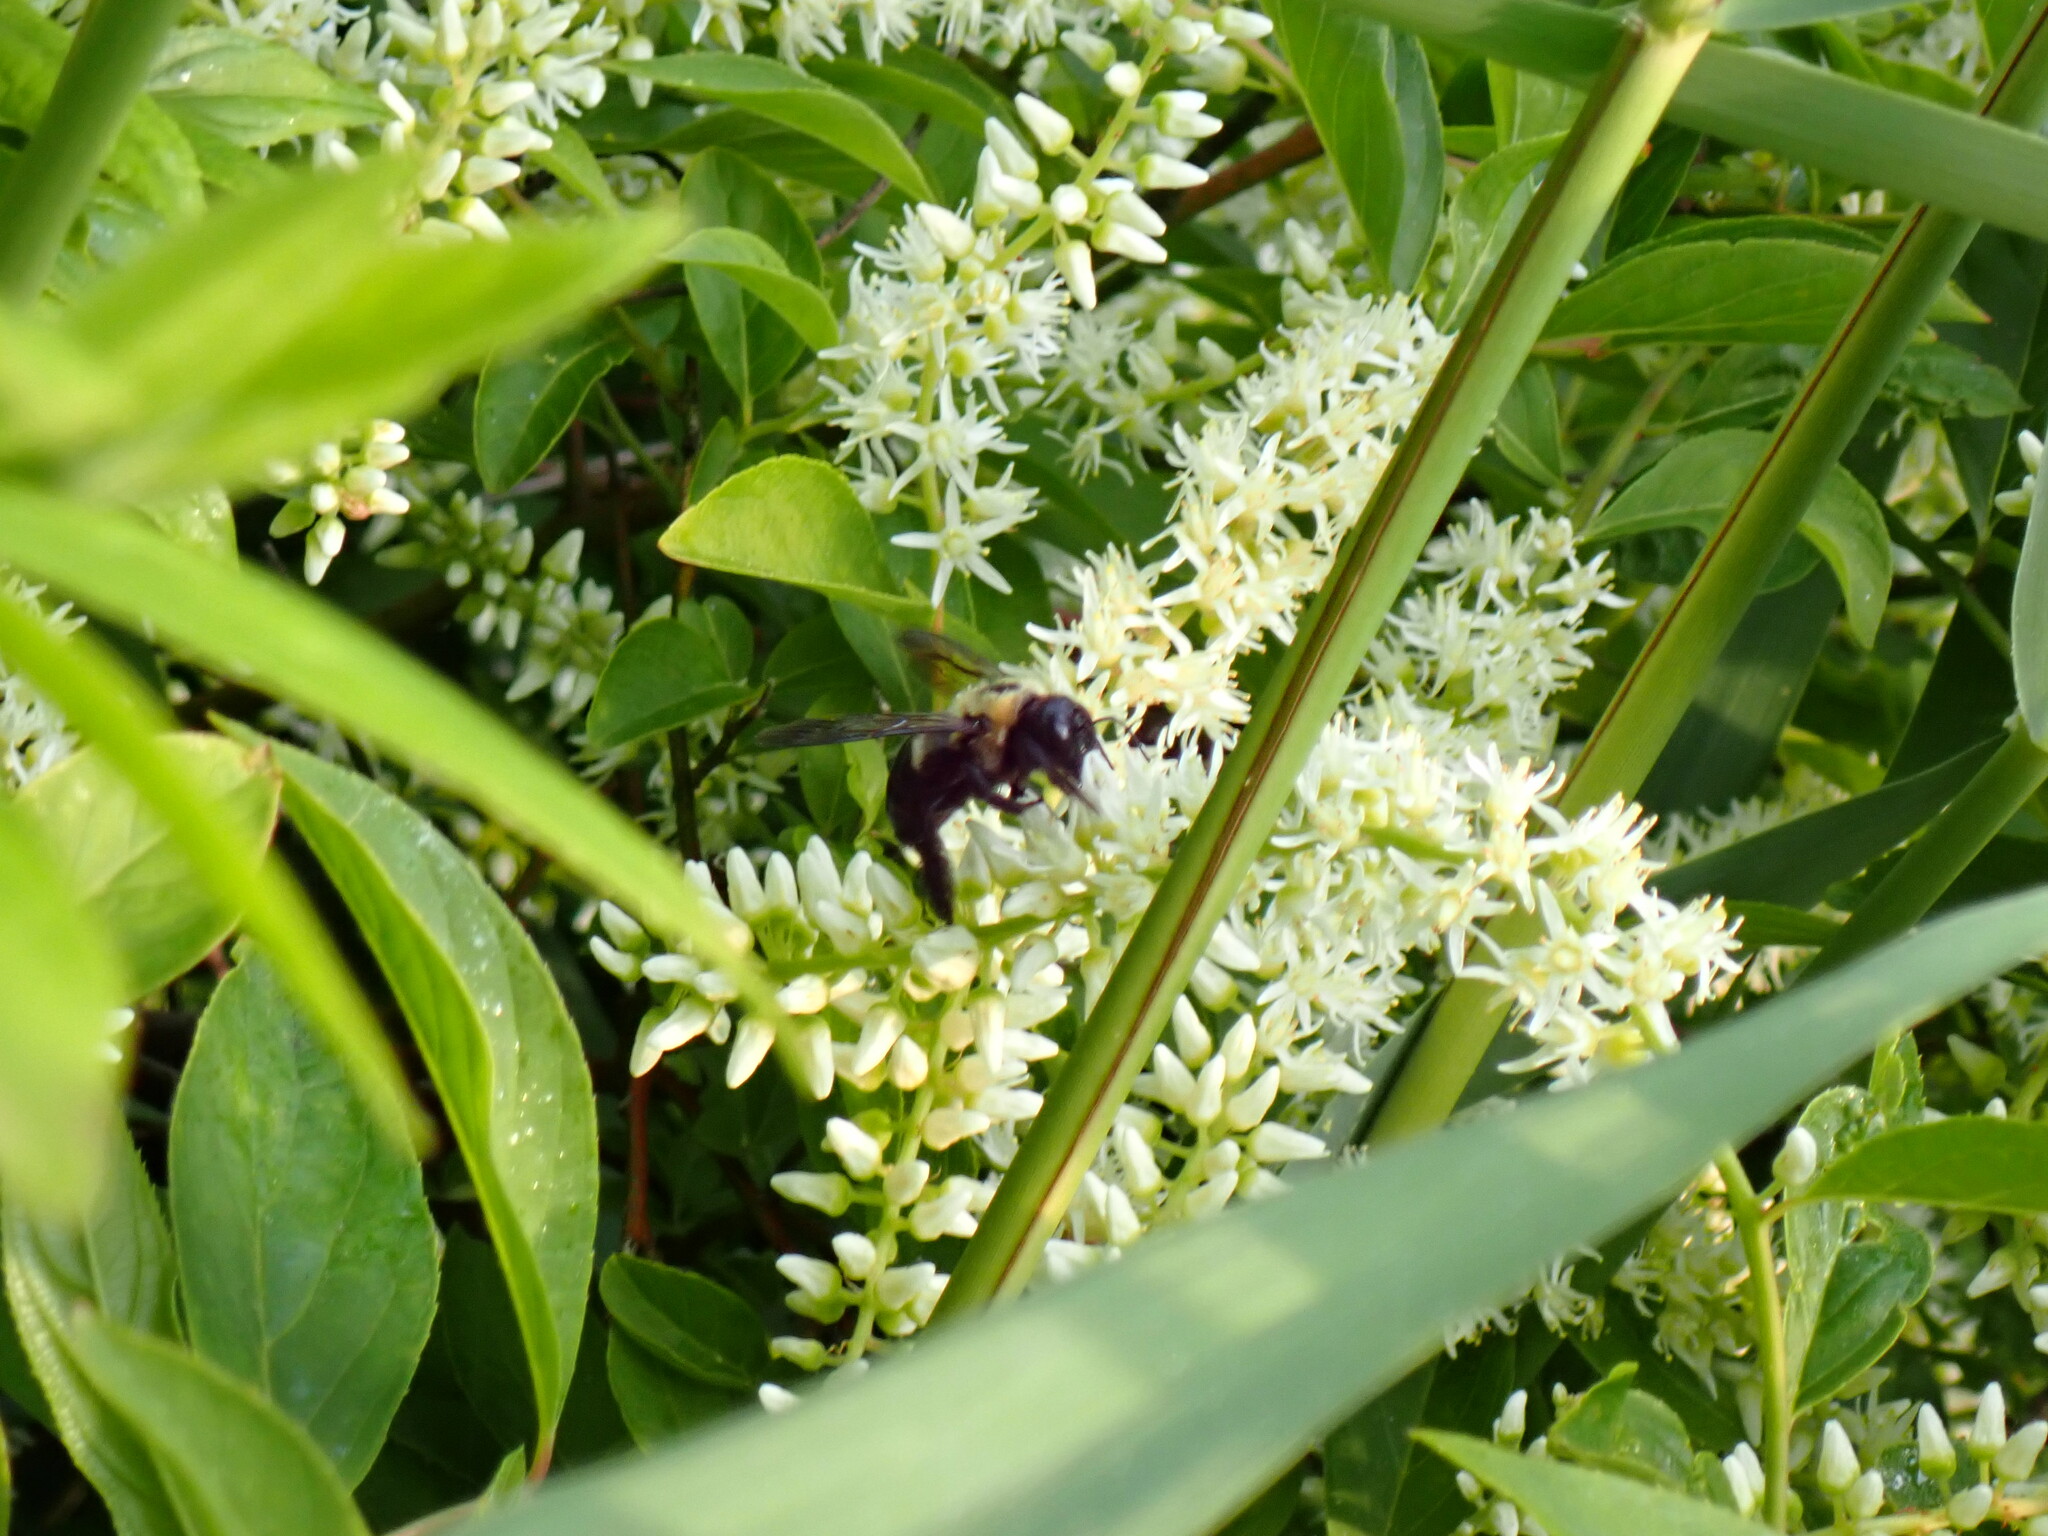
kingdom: Animalia
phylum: Arthropoda
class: Insecta
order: Hymenoptera
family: Apidae
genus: Xylocopa
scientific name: Xylocopa virginica
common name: Carpenter bee
